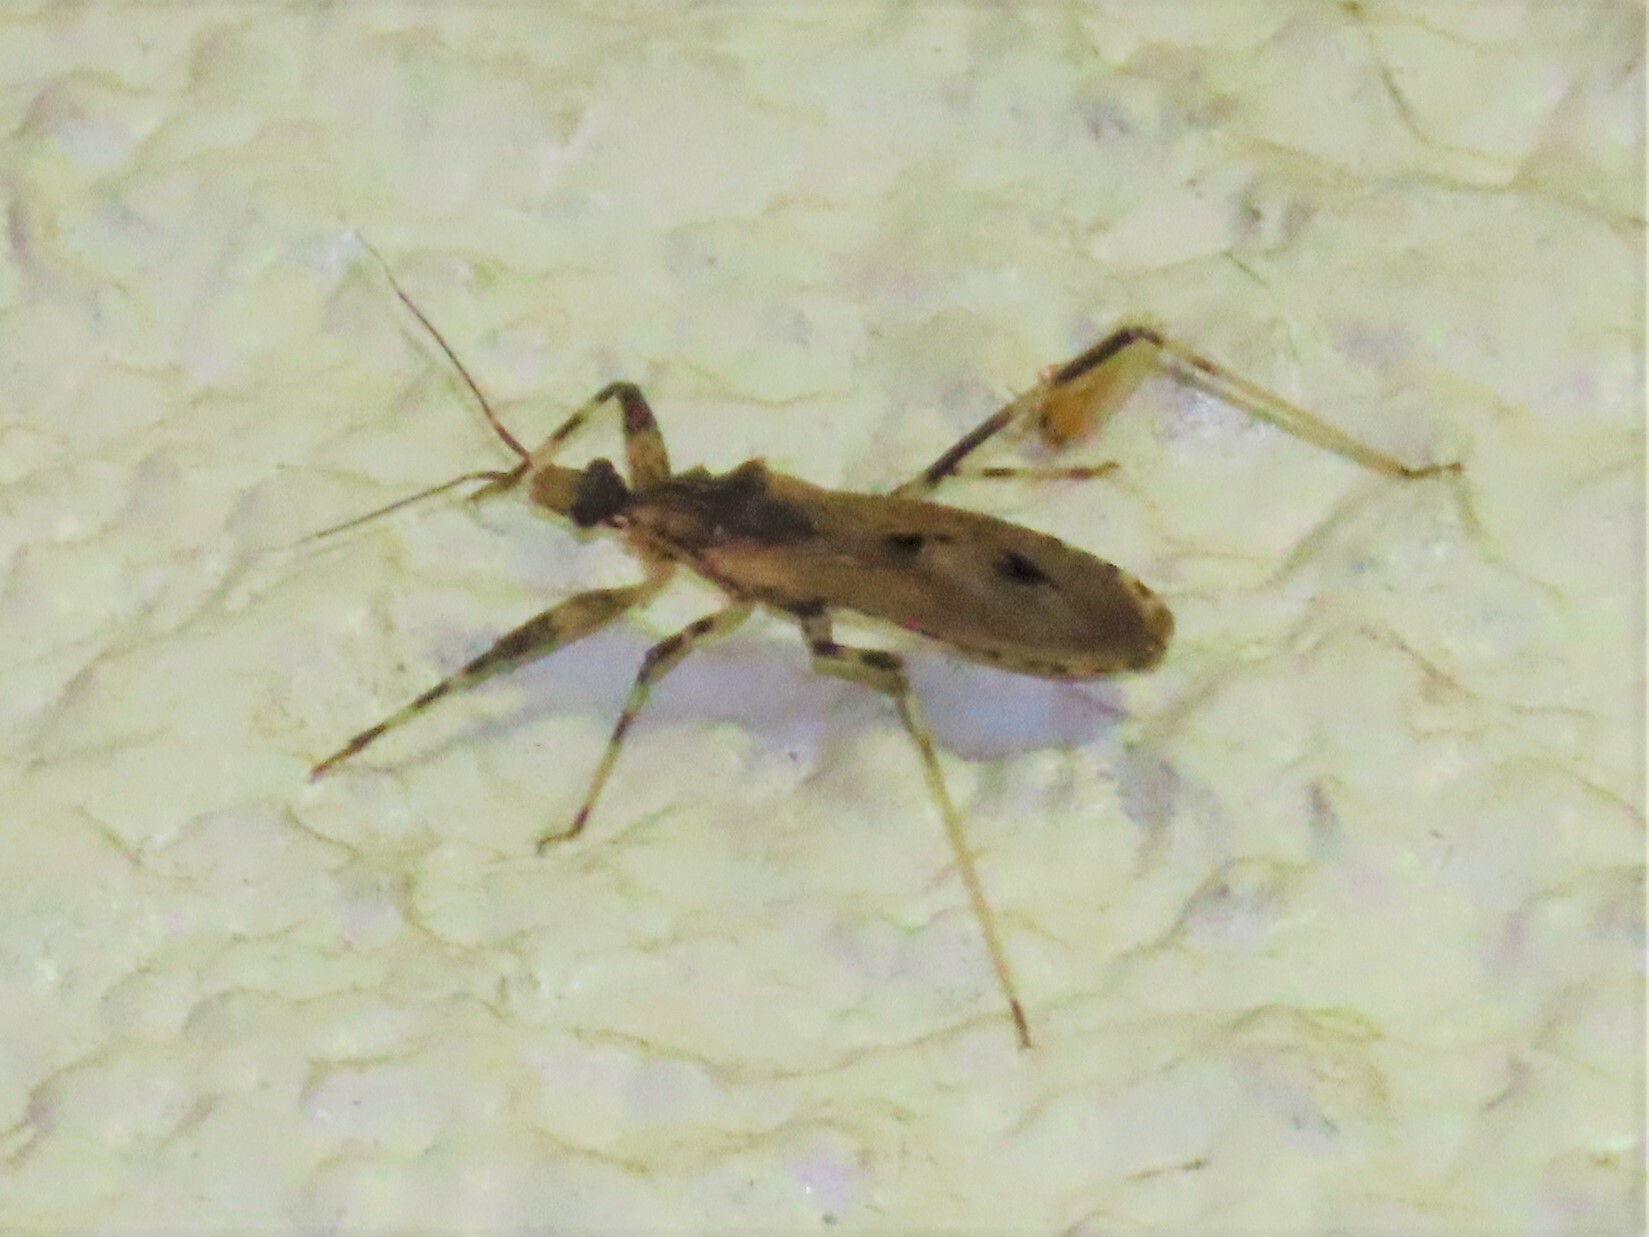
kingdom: Animalia
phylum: Arthropoda
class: Insecta
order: Hemiptera
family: Reduviidae
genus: Oncocephalus
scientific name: Oncocephalus geniculatus
